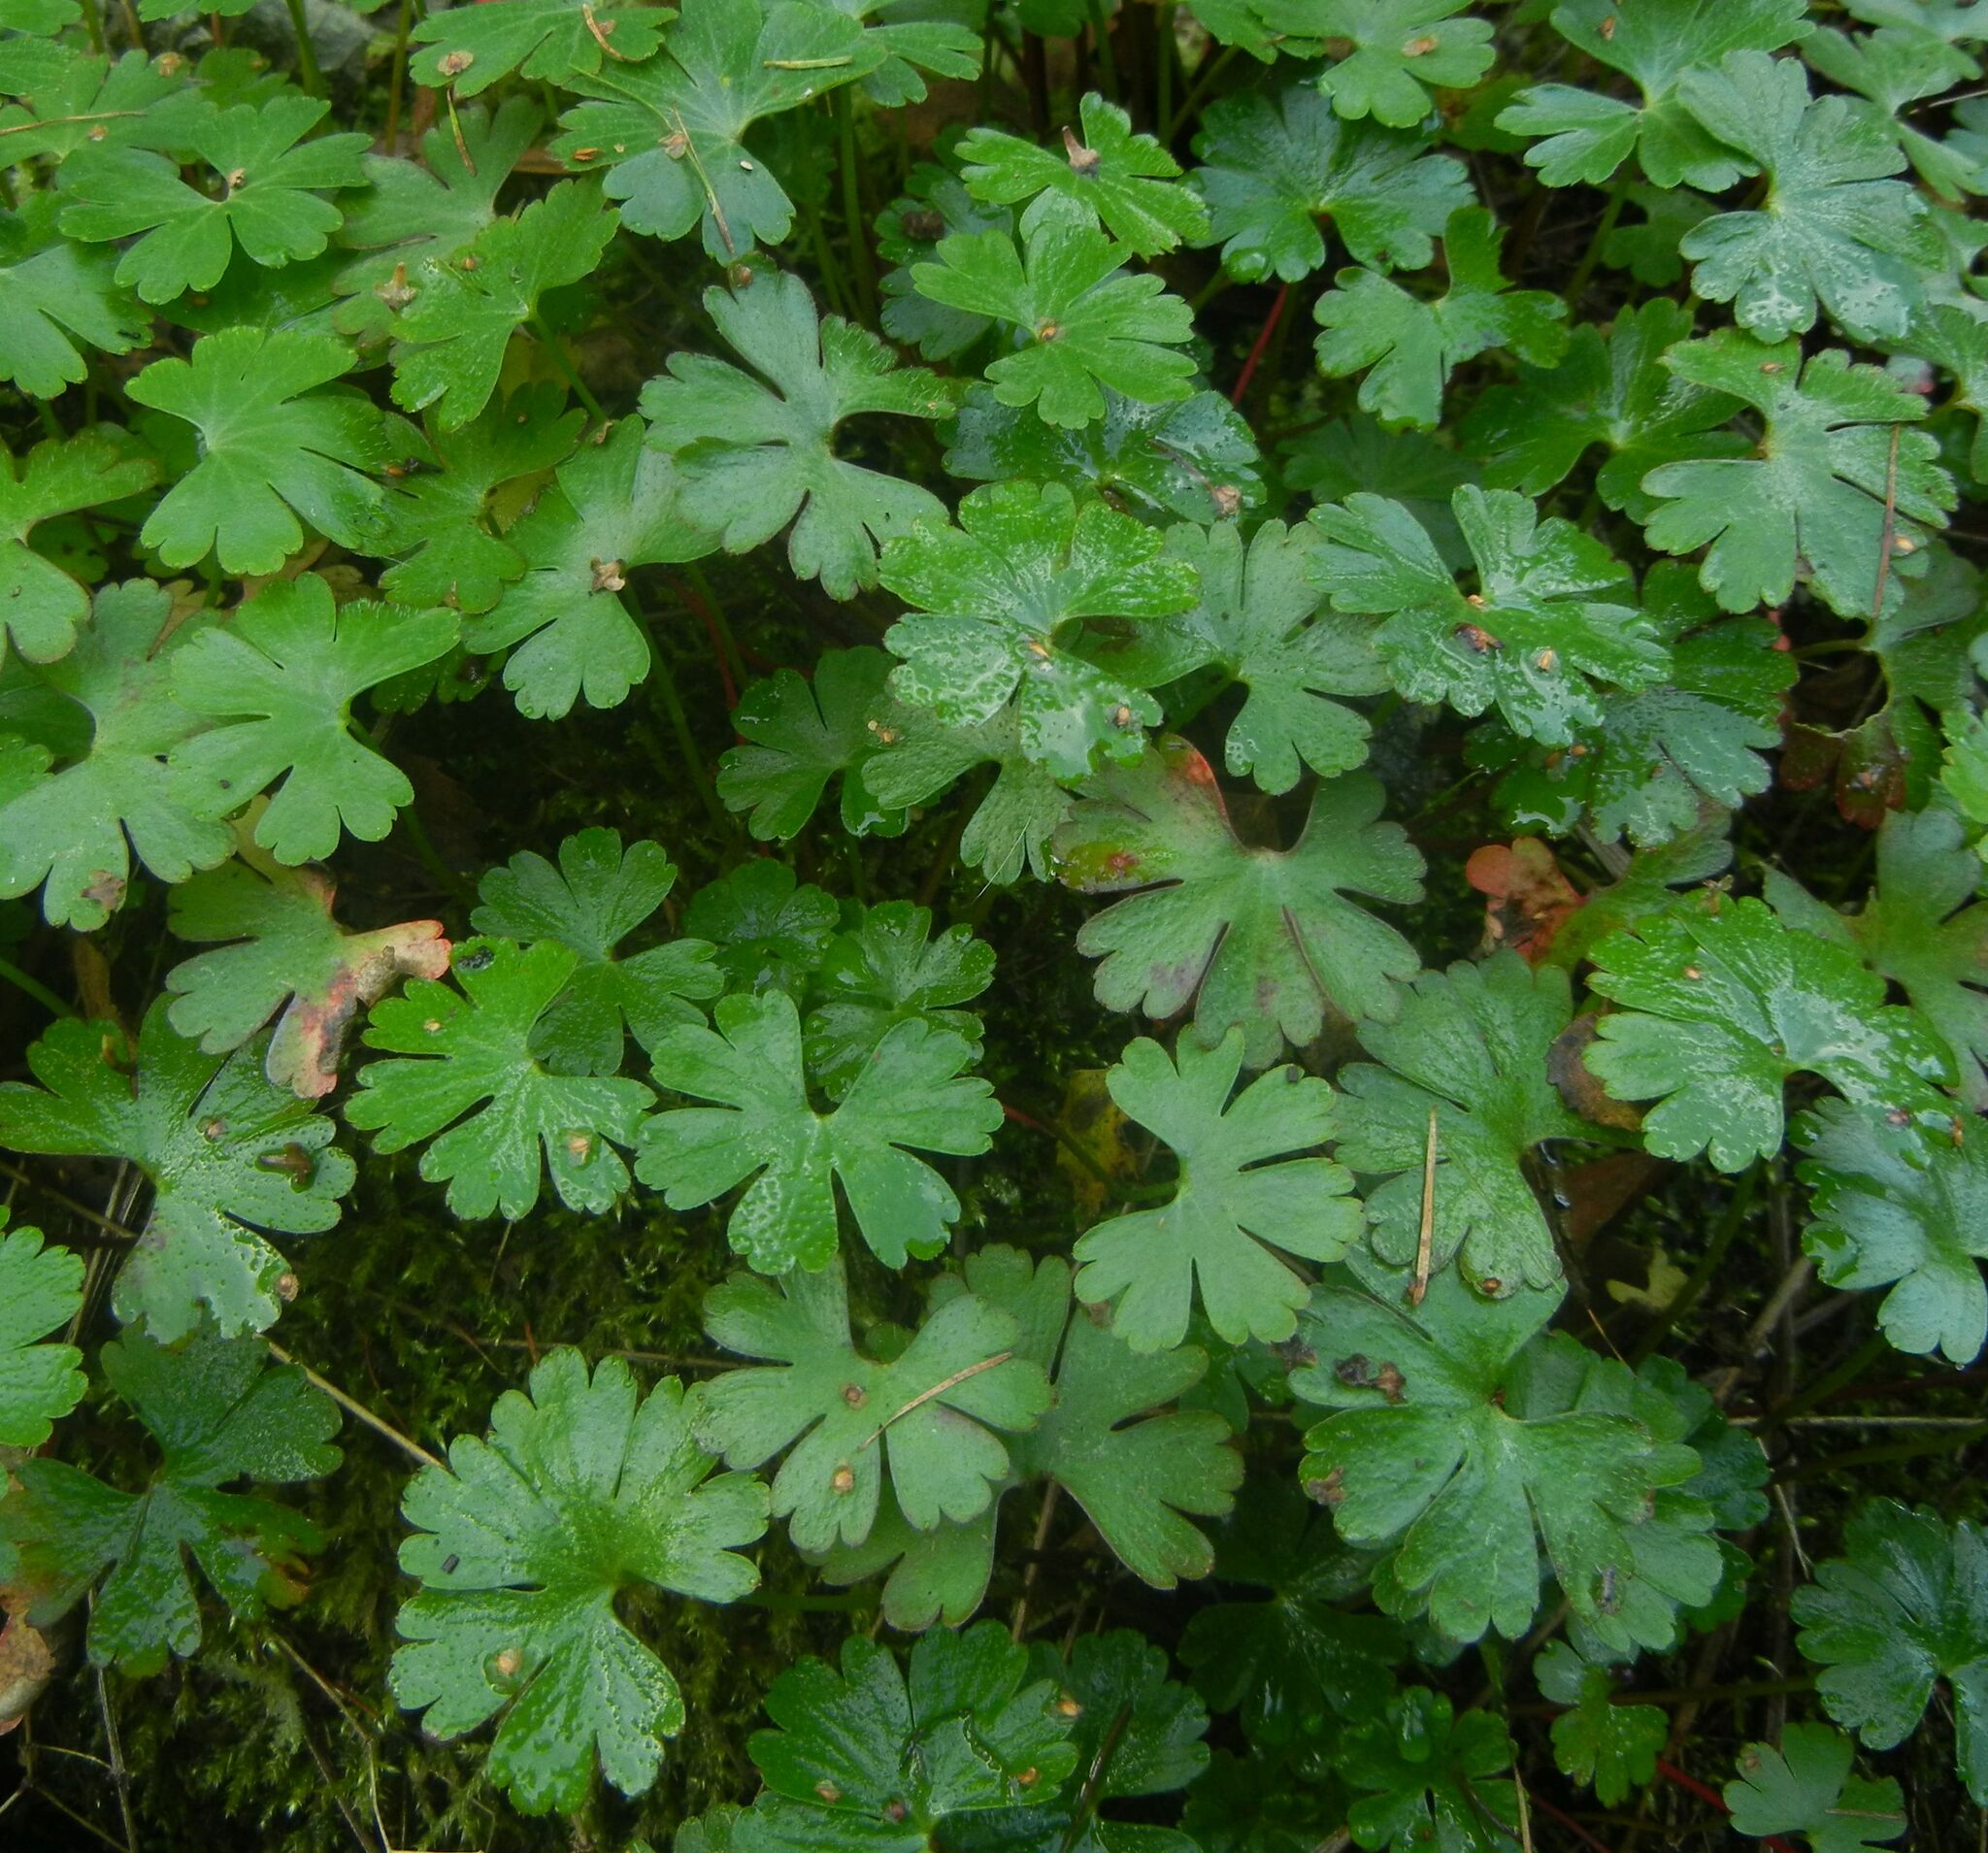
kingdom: Plantae
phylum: Tracheophyta
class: Magnoliopsida
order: Geraniales
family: Geraniaceae
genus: Geranium
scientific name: Geranium lucidum
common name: Shining crane's-bill
